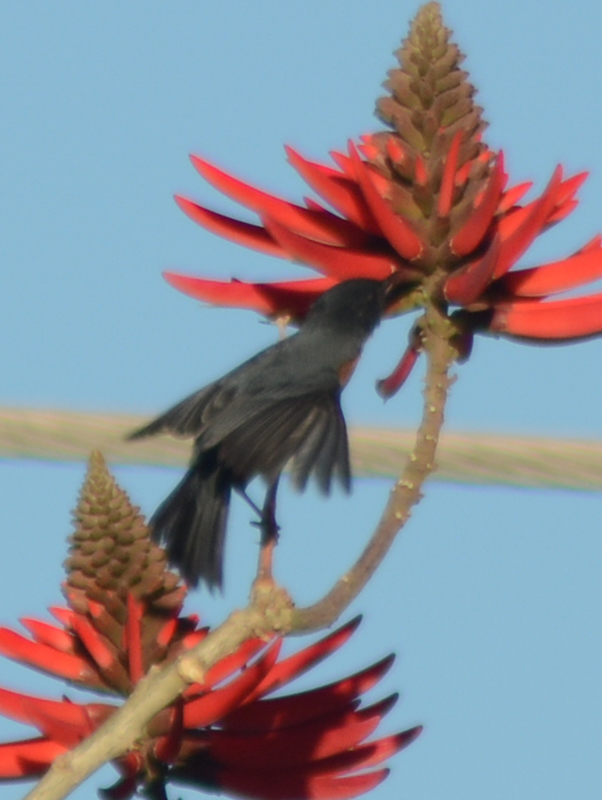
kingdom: Animalia
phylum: Chordata
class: Aves
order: Passeriformes
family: Thraupidae
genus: Diglossa
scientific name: Diglossa baritula
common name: Cinnamon-bellied flowerpiercer
